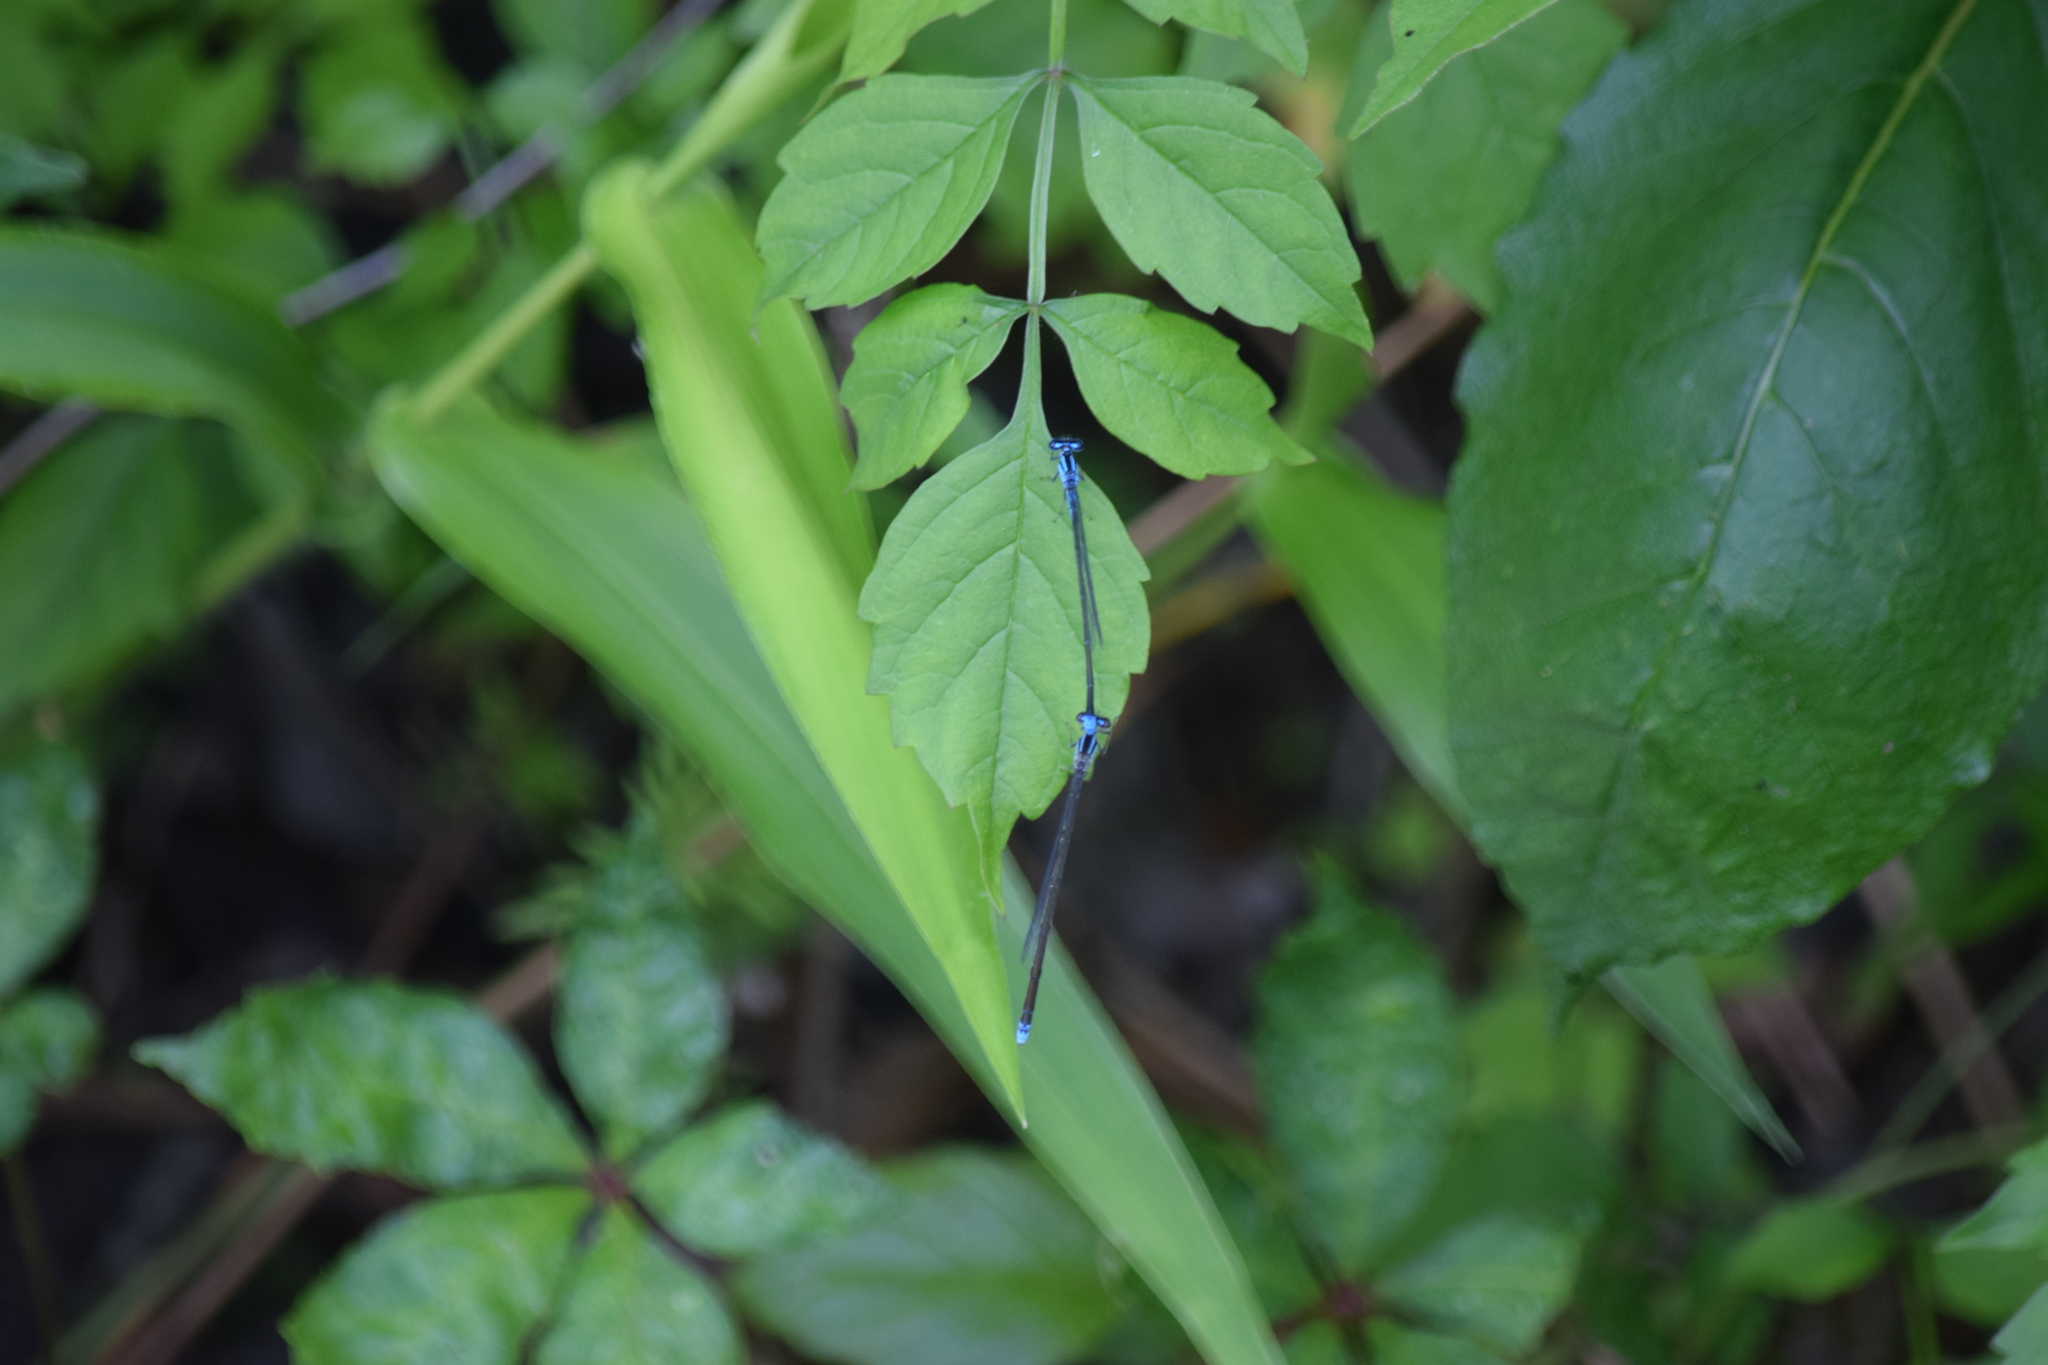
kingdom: Animalia
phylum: Arthropoda
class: Insecta
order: Odonata
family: Coenagrionidae
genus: Enallagma
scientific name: Enallagma exsulans
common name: Stream bluet
